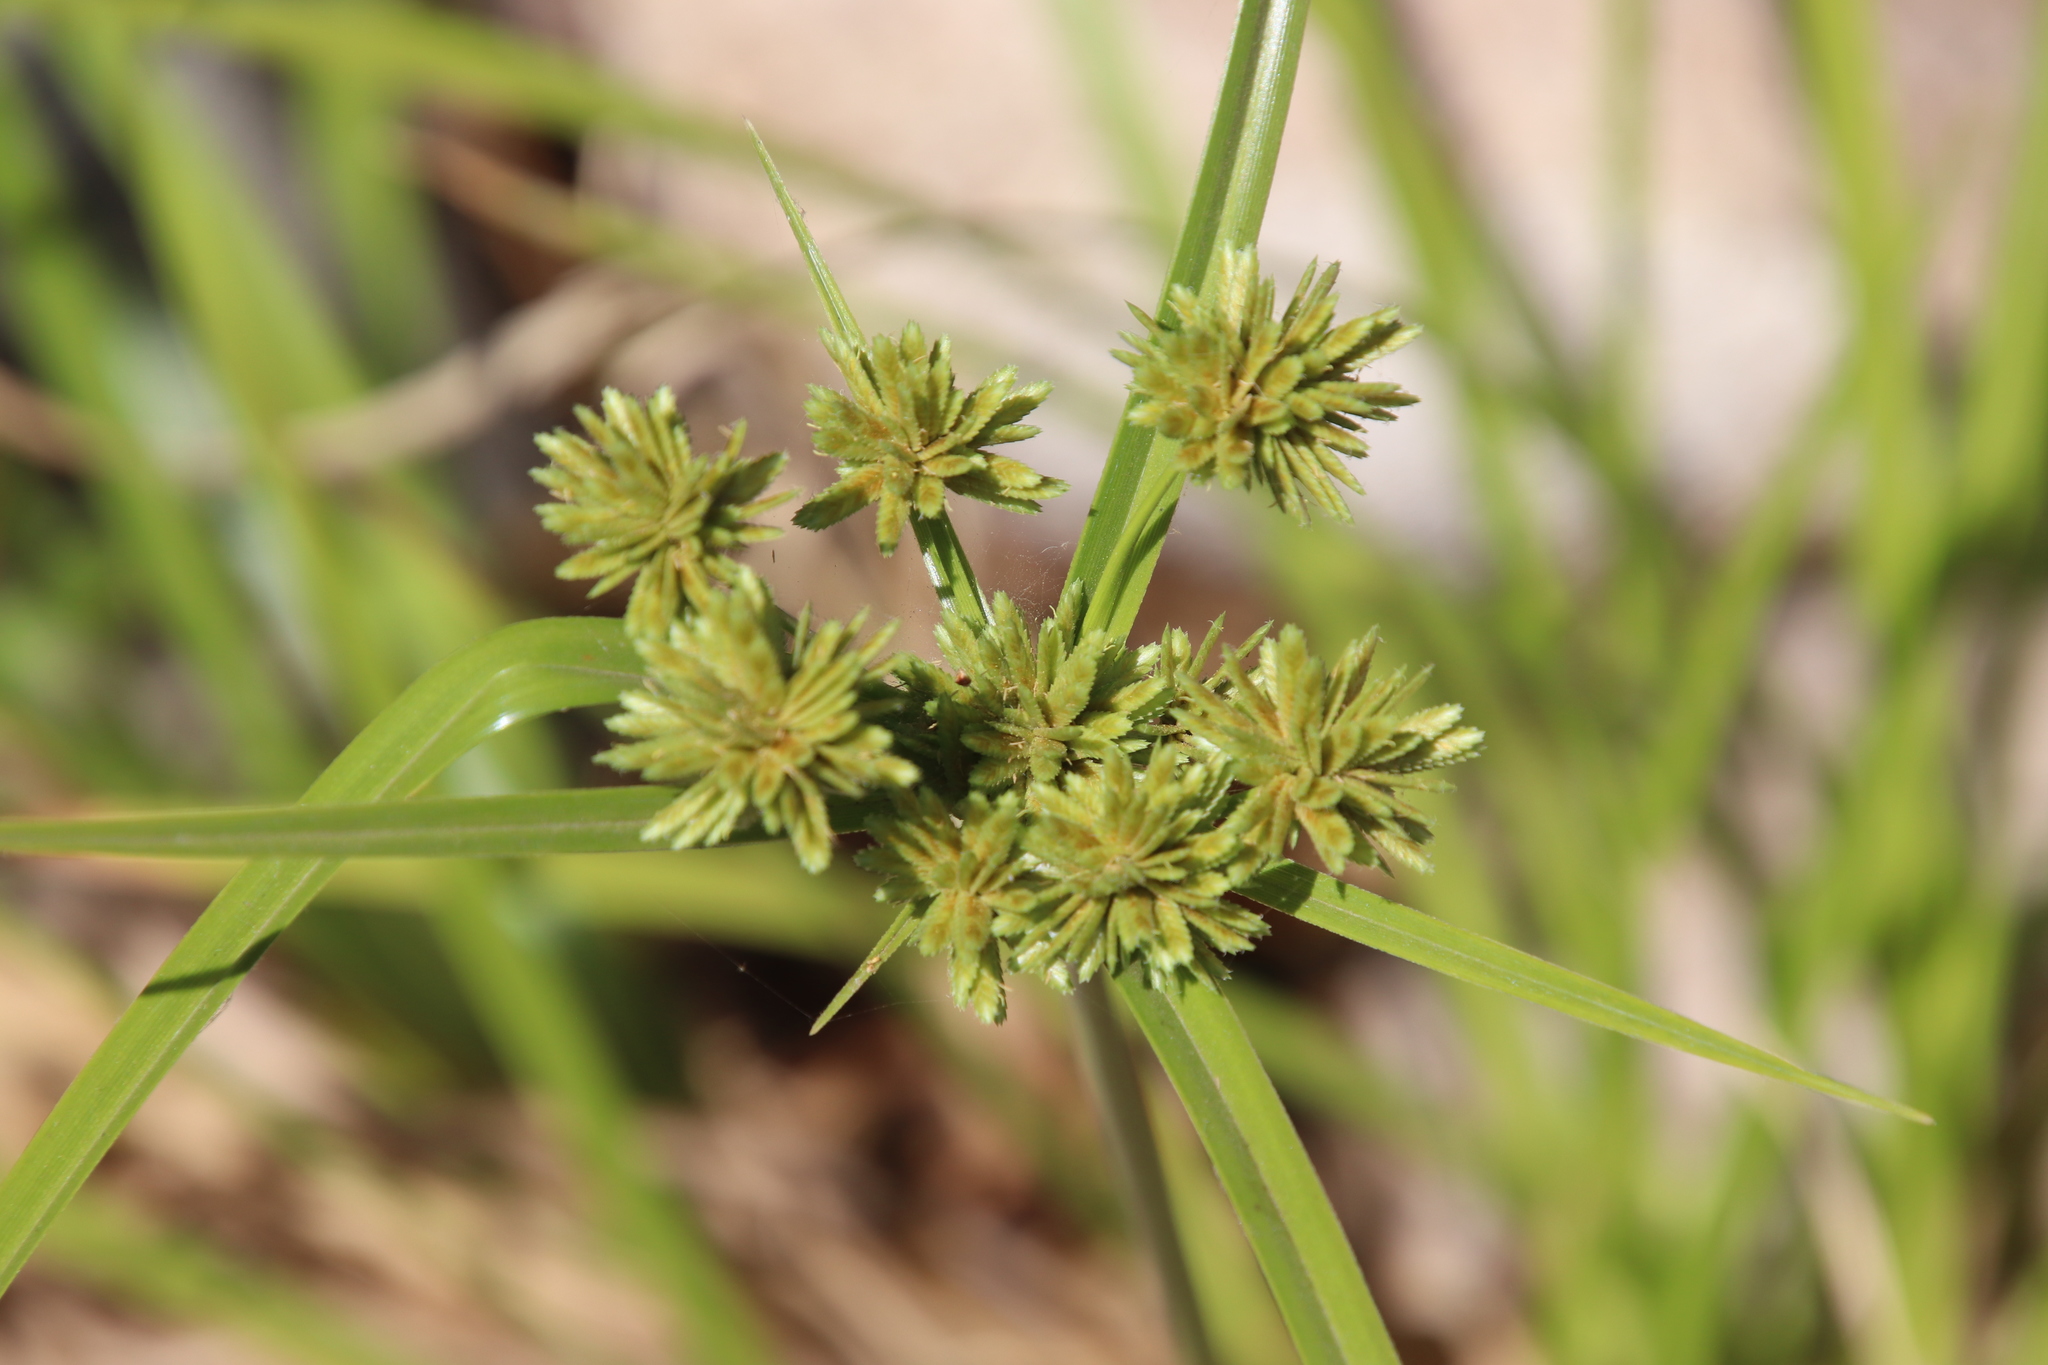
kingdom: Plantae
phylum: Tracheophyta
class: Liliopsida
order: Poales
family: Cyperaceae
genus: Cyperus
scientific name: Cyperus eragrostis
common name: Tall flatsedge
